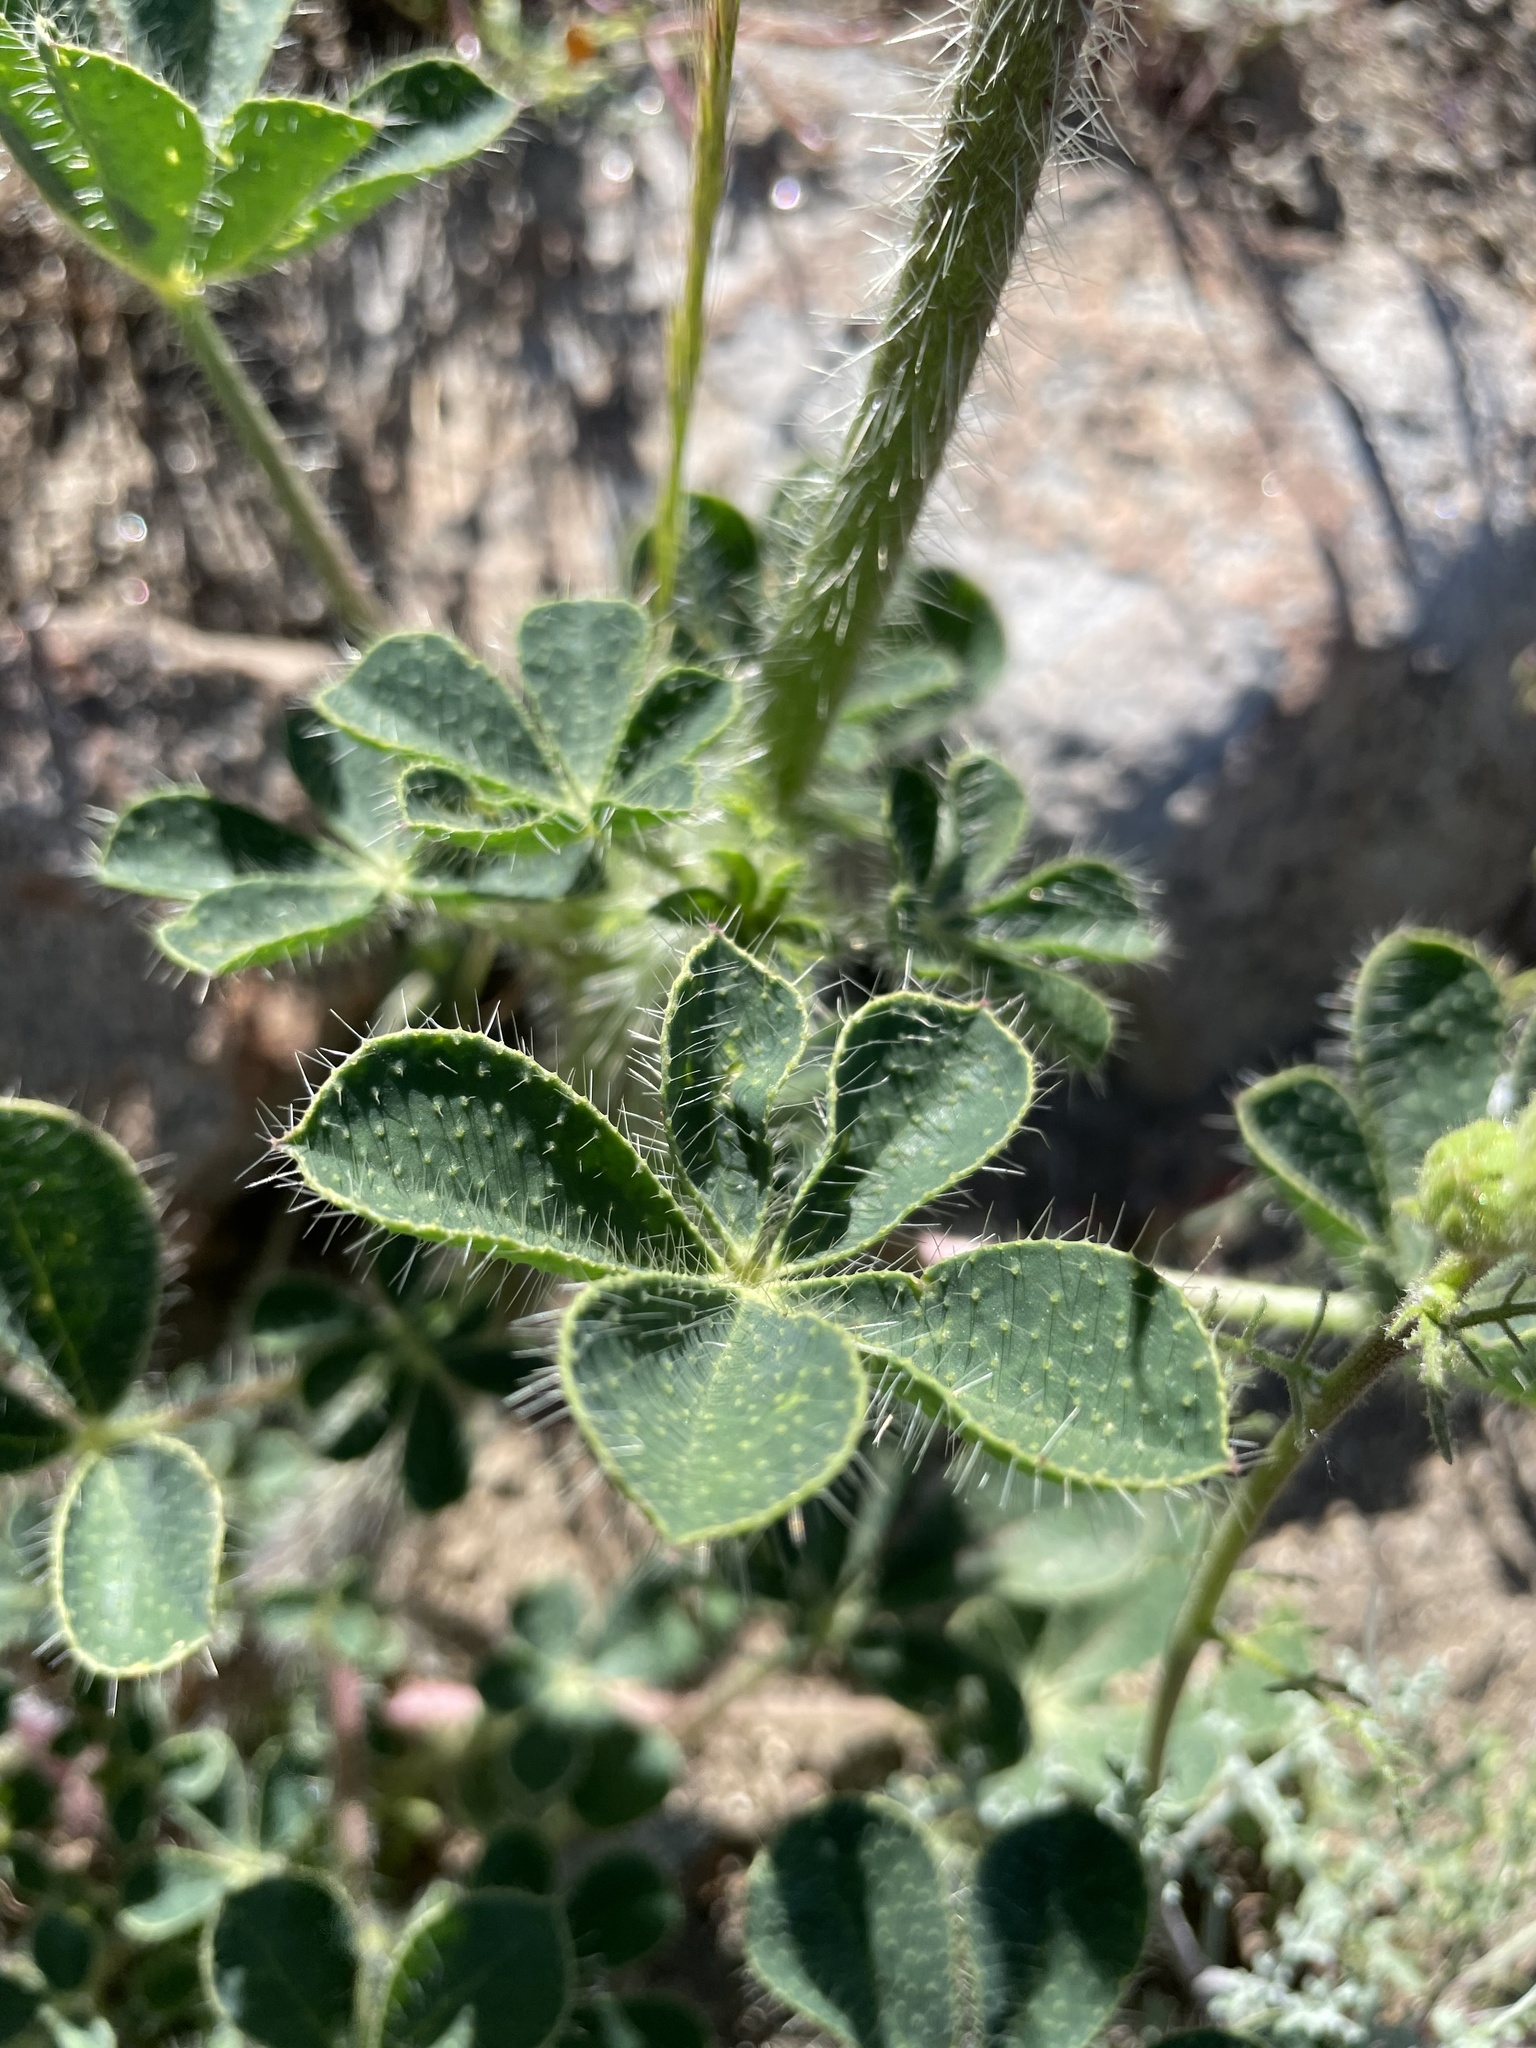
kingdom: Plantae
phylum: Tracheophyta
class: Magnoliopsida
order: Fabales
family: Fabaceae
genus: Lupinus
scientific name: Lupinus hirsutissimus
